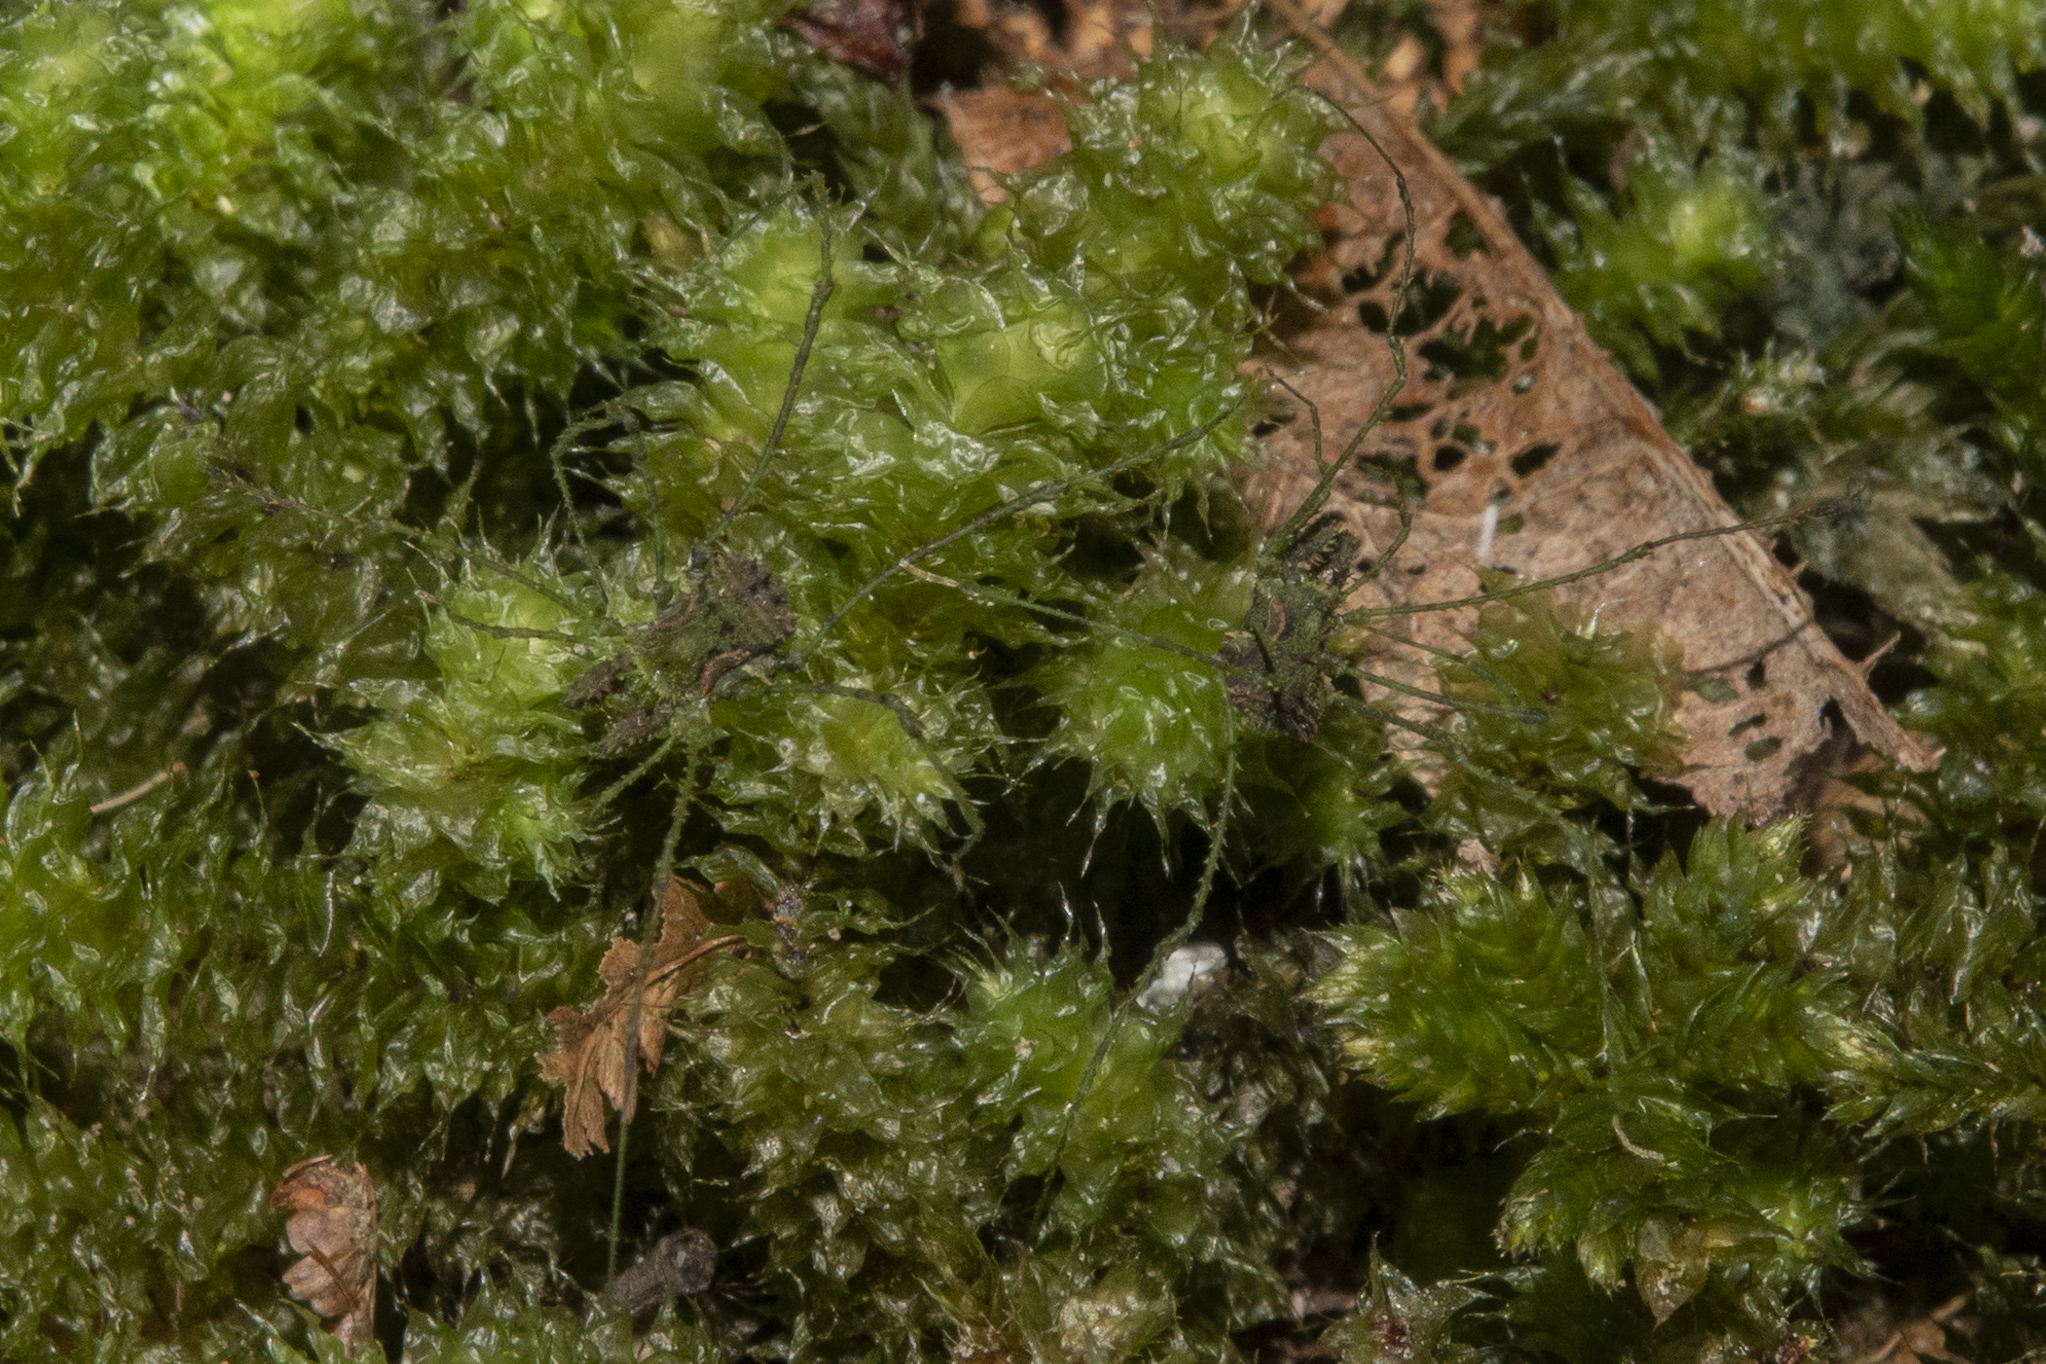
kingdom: Animalia
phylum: Arthropoda
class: Arachnida
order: Opiliones
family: Triaenonychidae
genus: Algidia
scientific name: Algidia viridata
